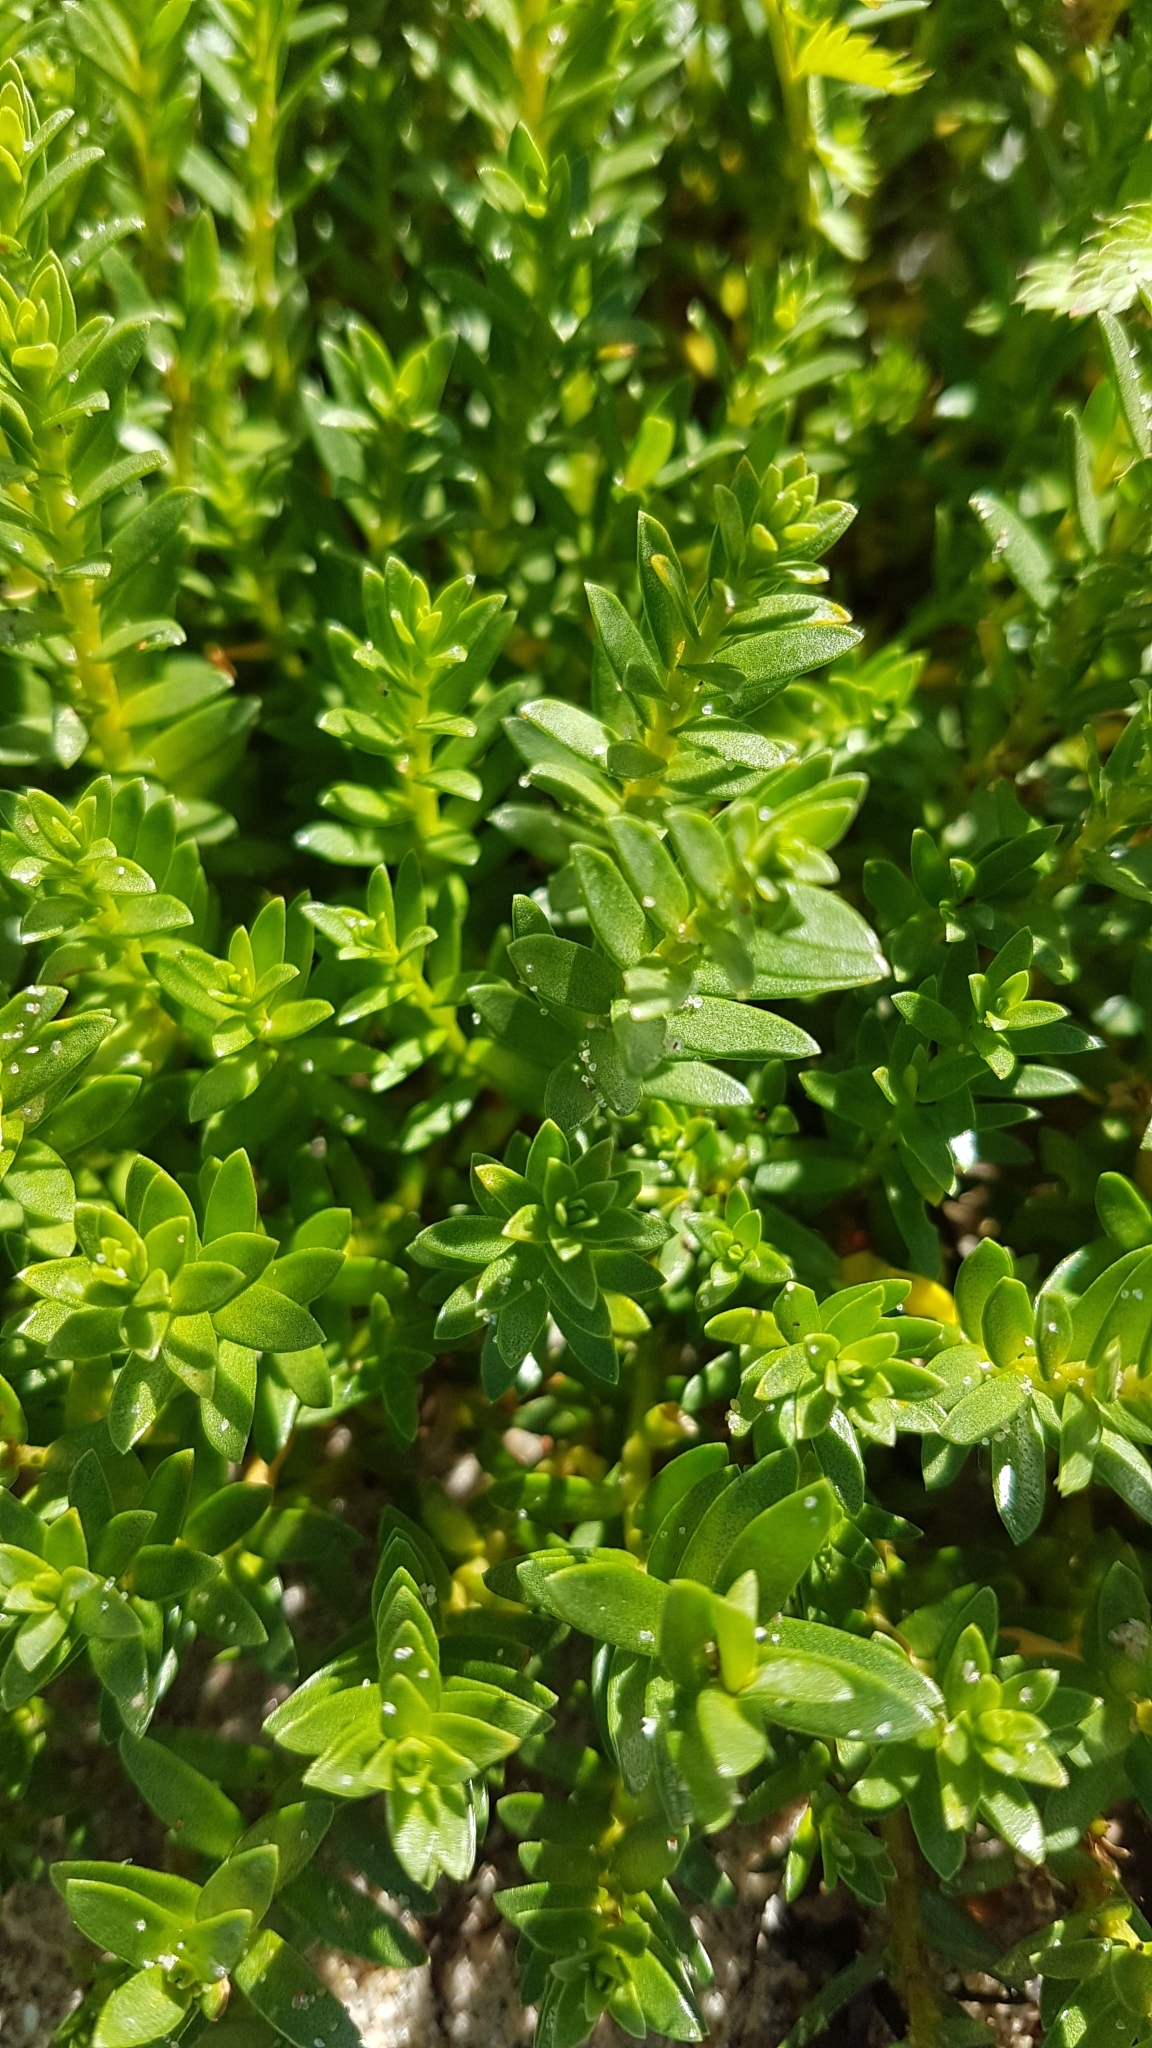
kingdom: Plantae
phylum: Tracheophyta
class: Magnoliopsida
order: Caryophyllales
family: Caryophyllaceae
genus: Honckenya
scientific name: Honckenya peploides
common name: Sea sandwort
